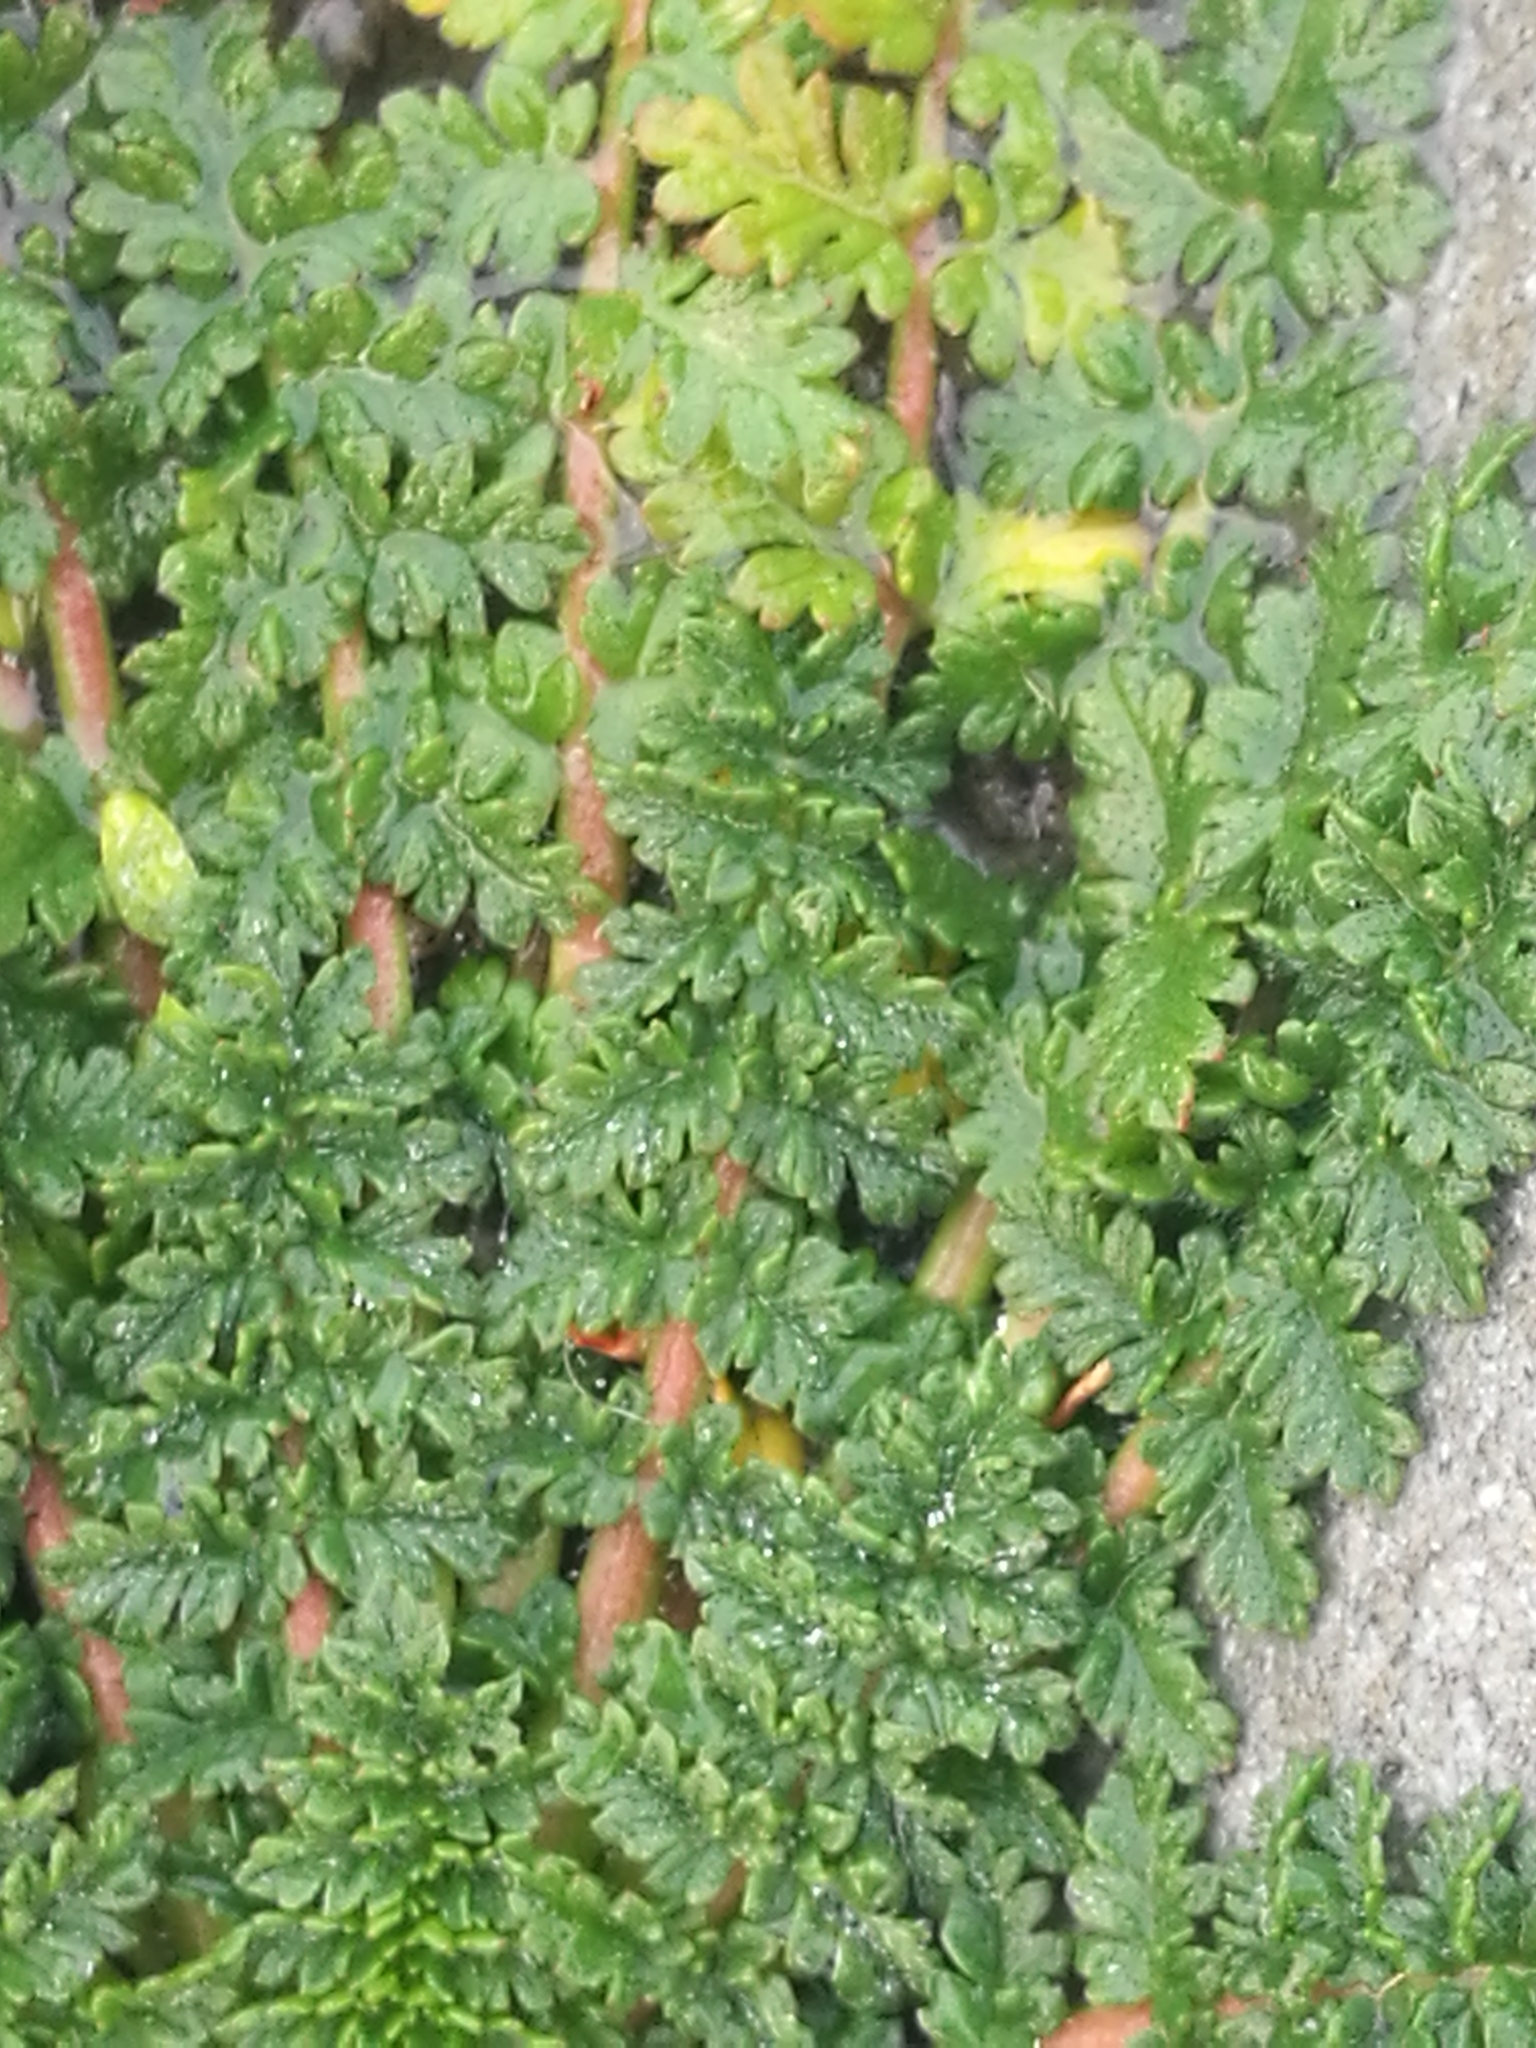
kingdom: Plantae
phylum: Tracheophyta
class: Magnoliopsida
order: Geraniales
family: Geraniaceae
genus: Erodium
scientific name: Erodium cicutarium
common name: Common stork's-bill
